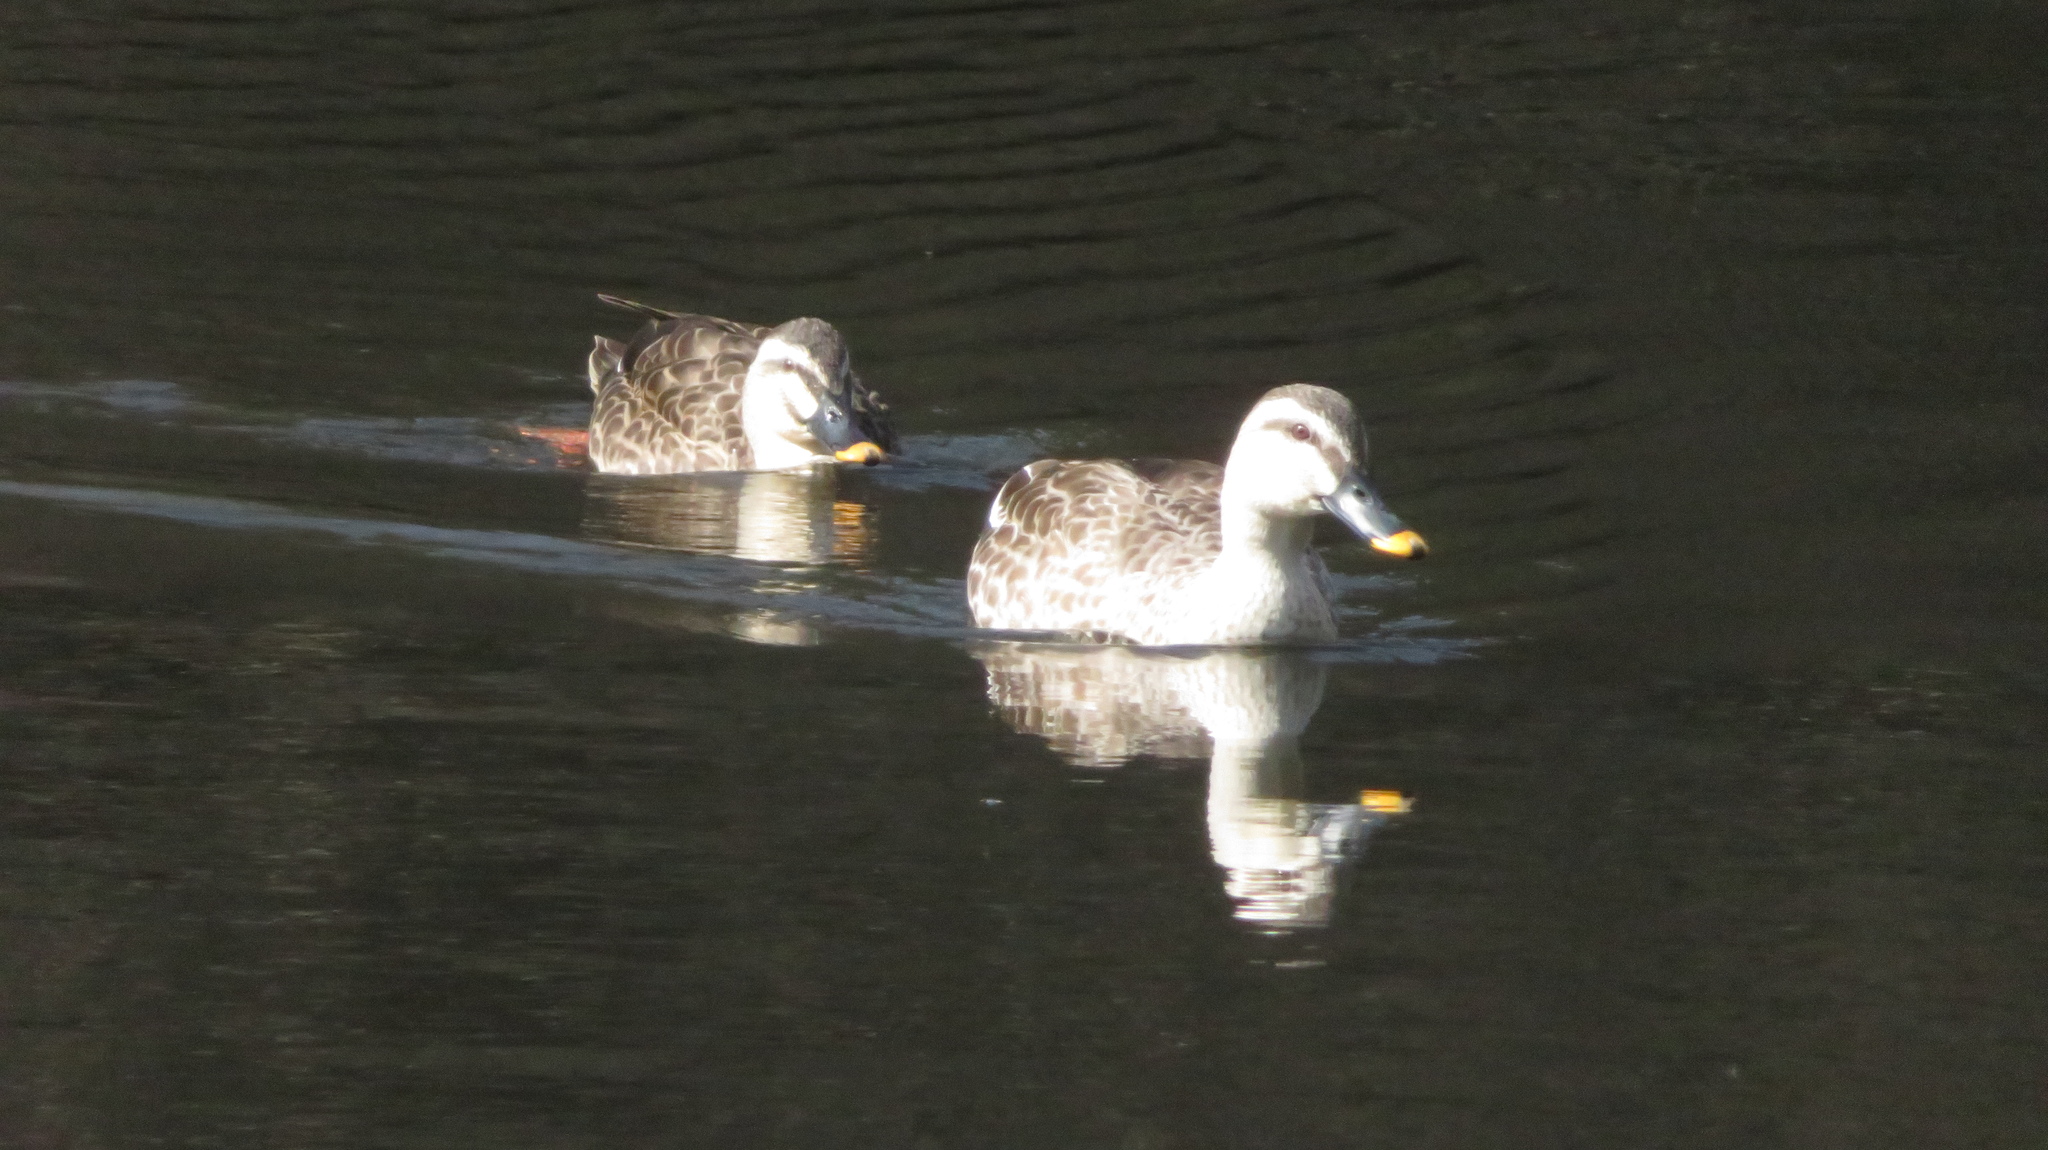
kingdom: Animalia
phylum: Chordata
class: Aves
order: Anseriformes
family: Anatidae
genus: Anas
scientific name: Anas zonorhyncha
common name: Eastern spot-billed duck
